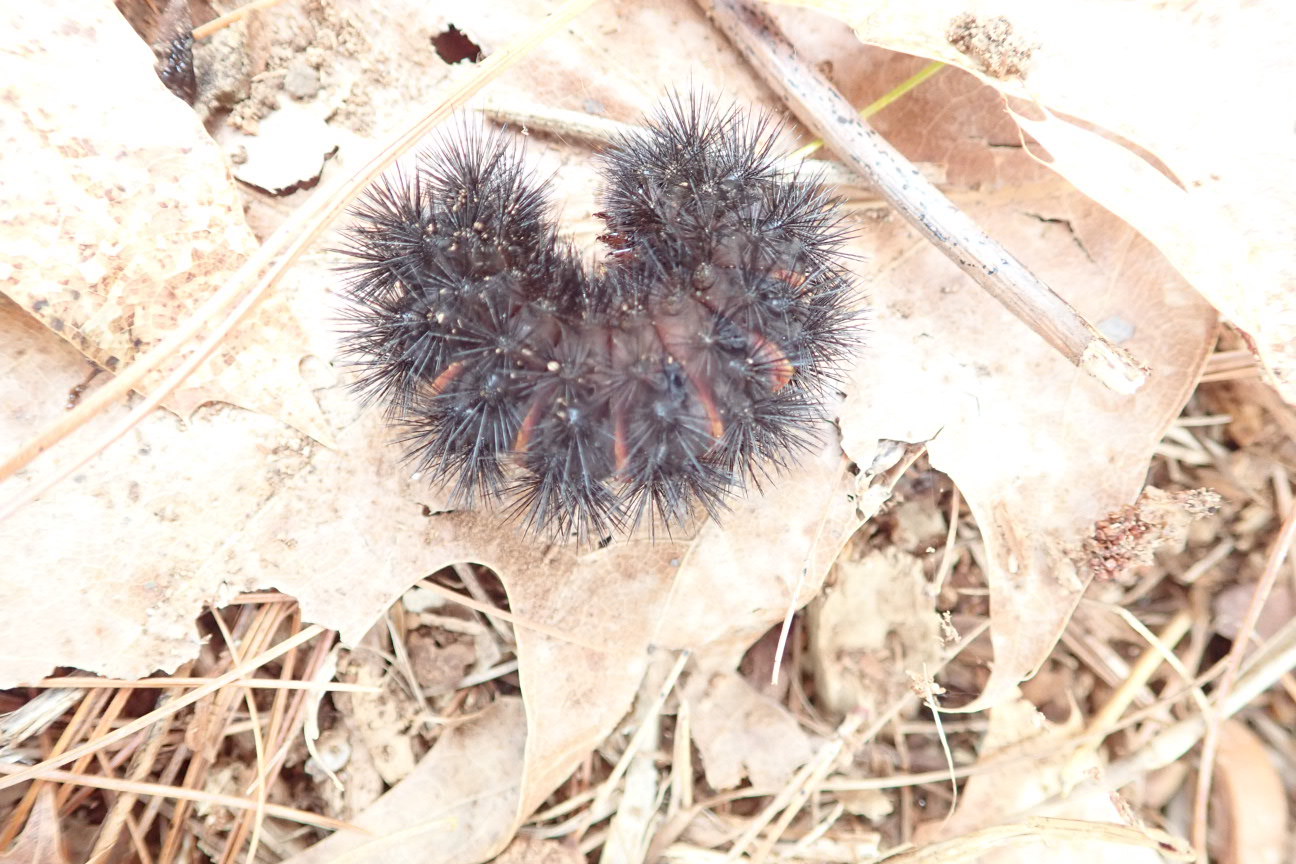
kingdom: Animalia
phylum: Arthropoda
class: Insecta
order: Lepidoptera
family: Erebidae
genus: Hypercompe
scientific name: Hypercompe scribonia
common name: Giant leopard moth
